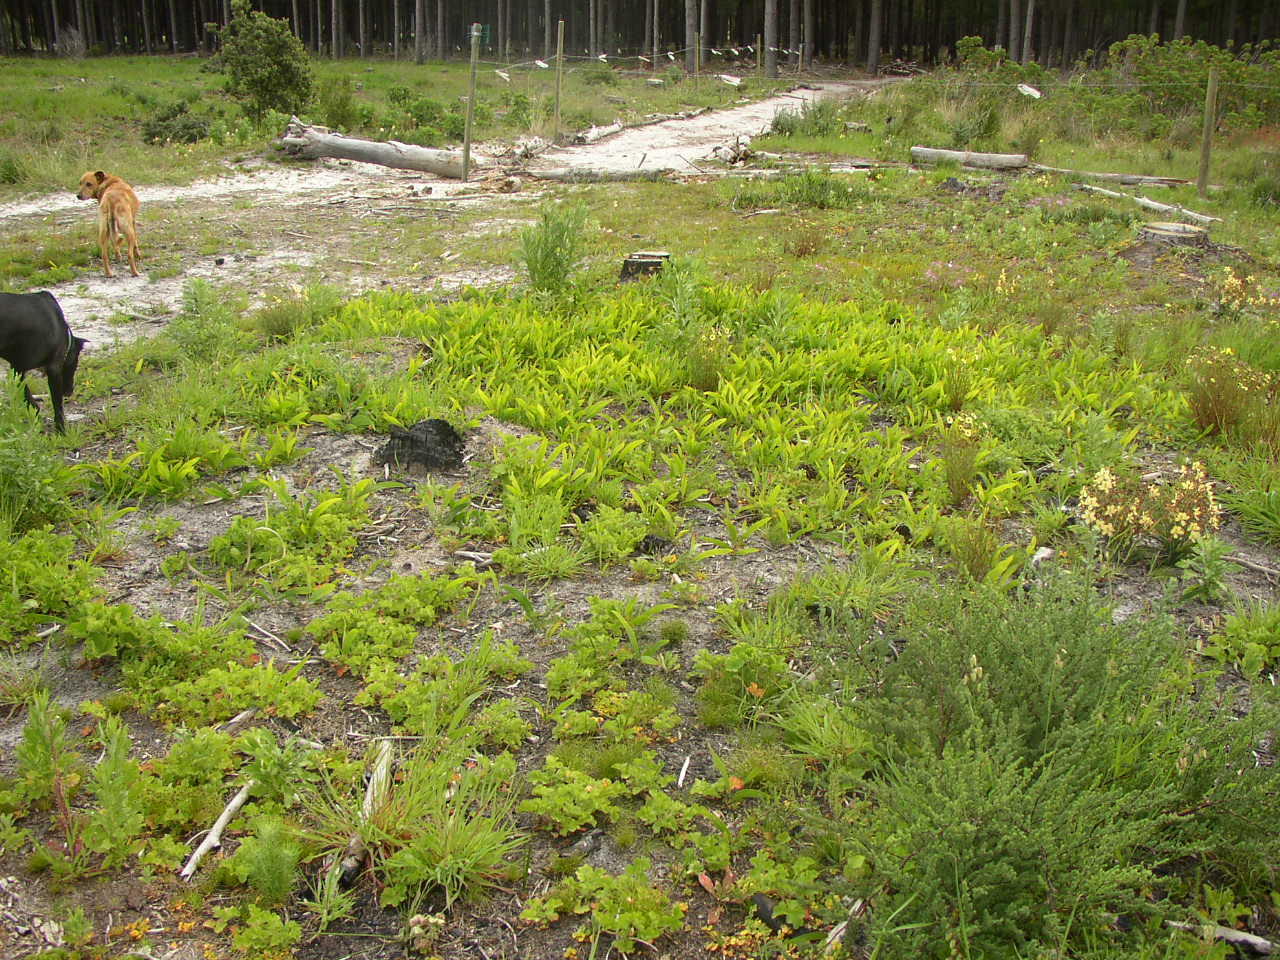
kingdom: Plantae
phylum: Tracheophyta
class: Magnoliopsida
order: Fabales
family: Fabaceae
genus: Acacia
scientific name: Acacia saligna
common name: Orange wattle
